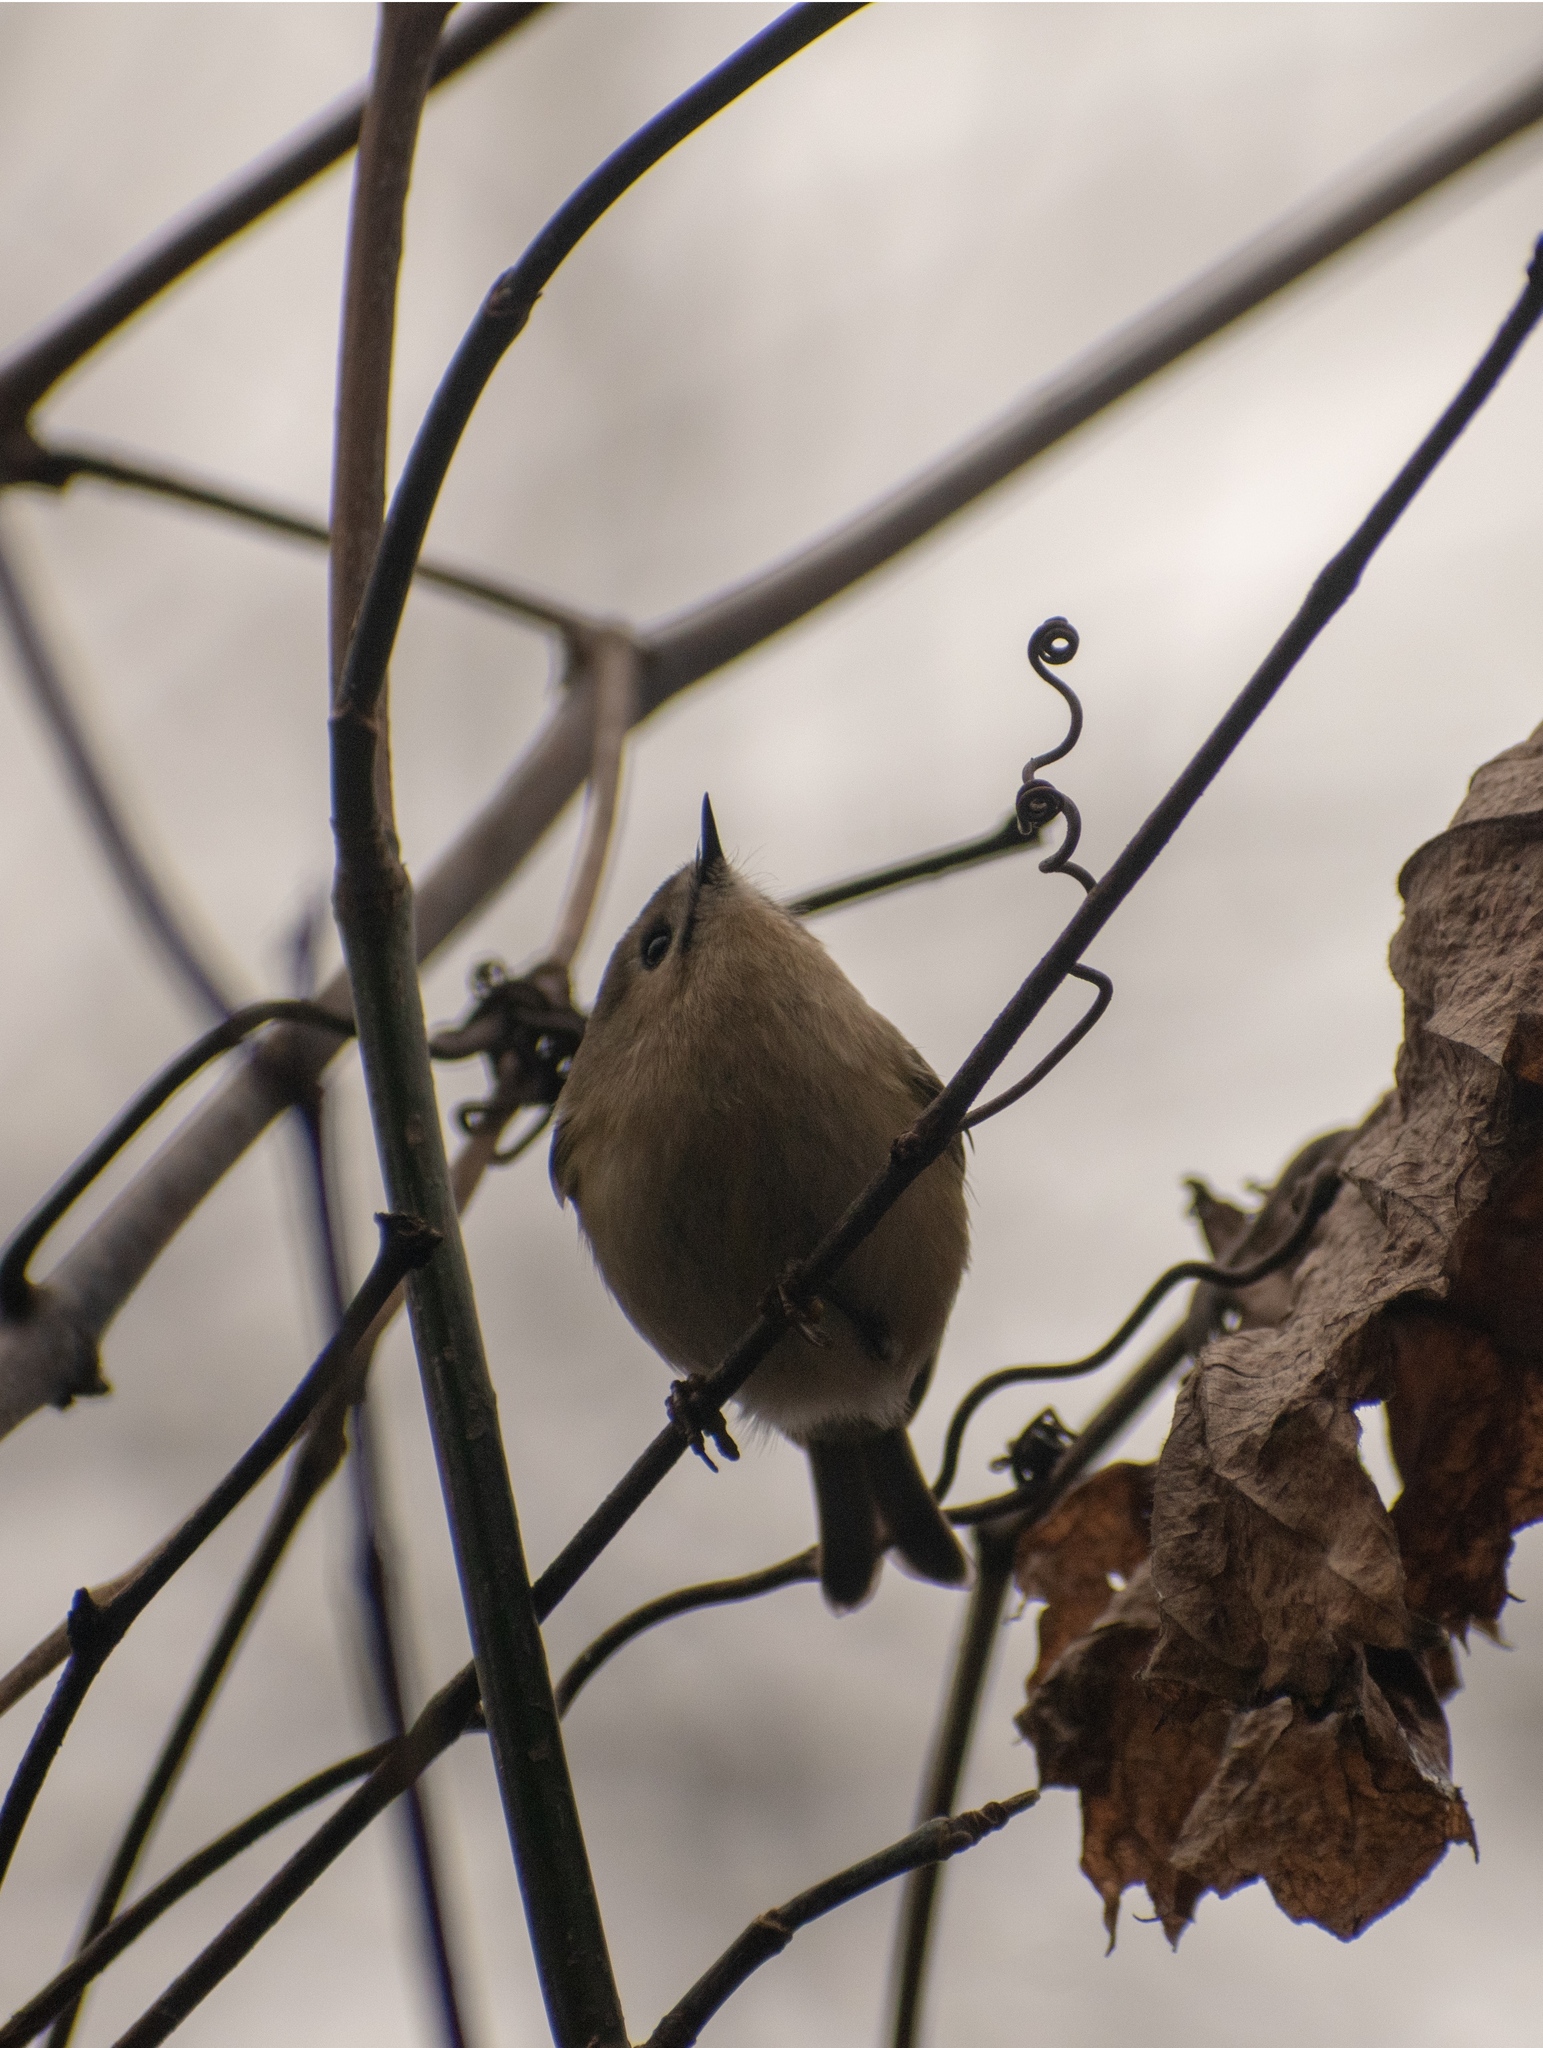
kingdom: Animalia
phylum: Chordata
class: Aves
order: Passeriformes
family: Regulidae
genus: Regulus
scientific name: Regulus regulus
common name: Goldcrest
